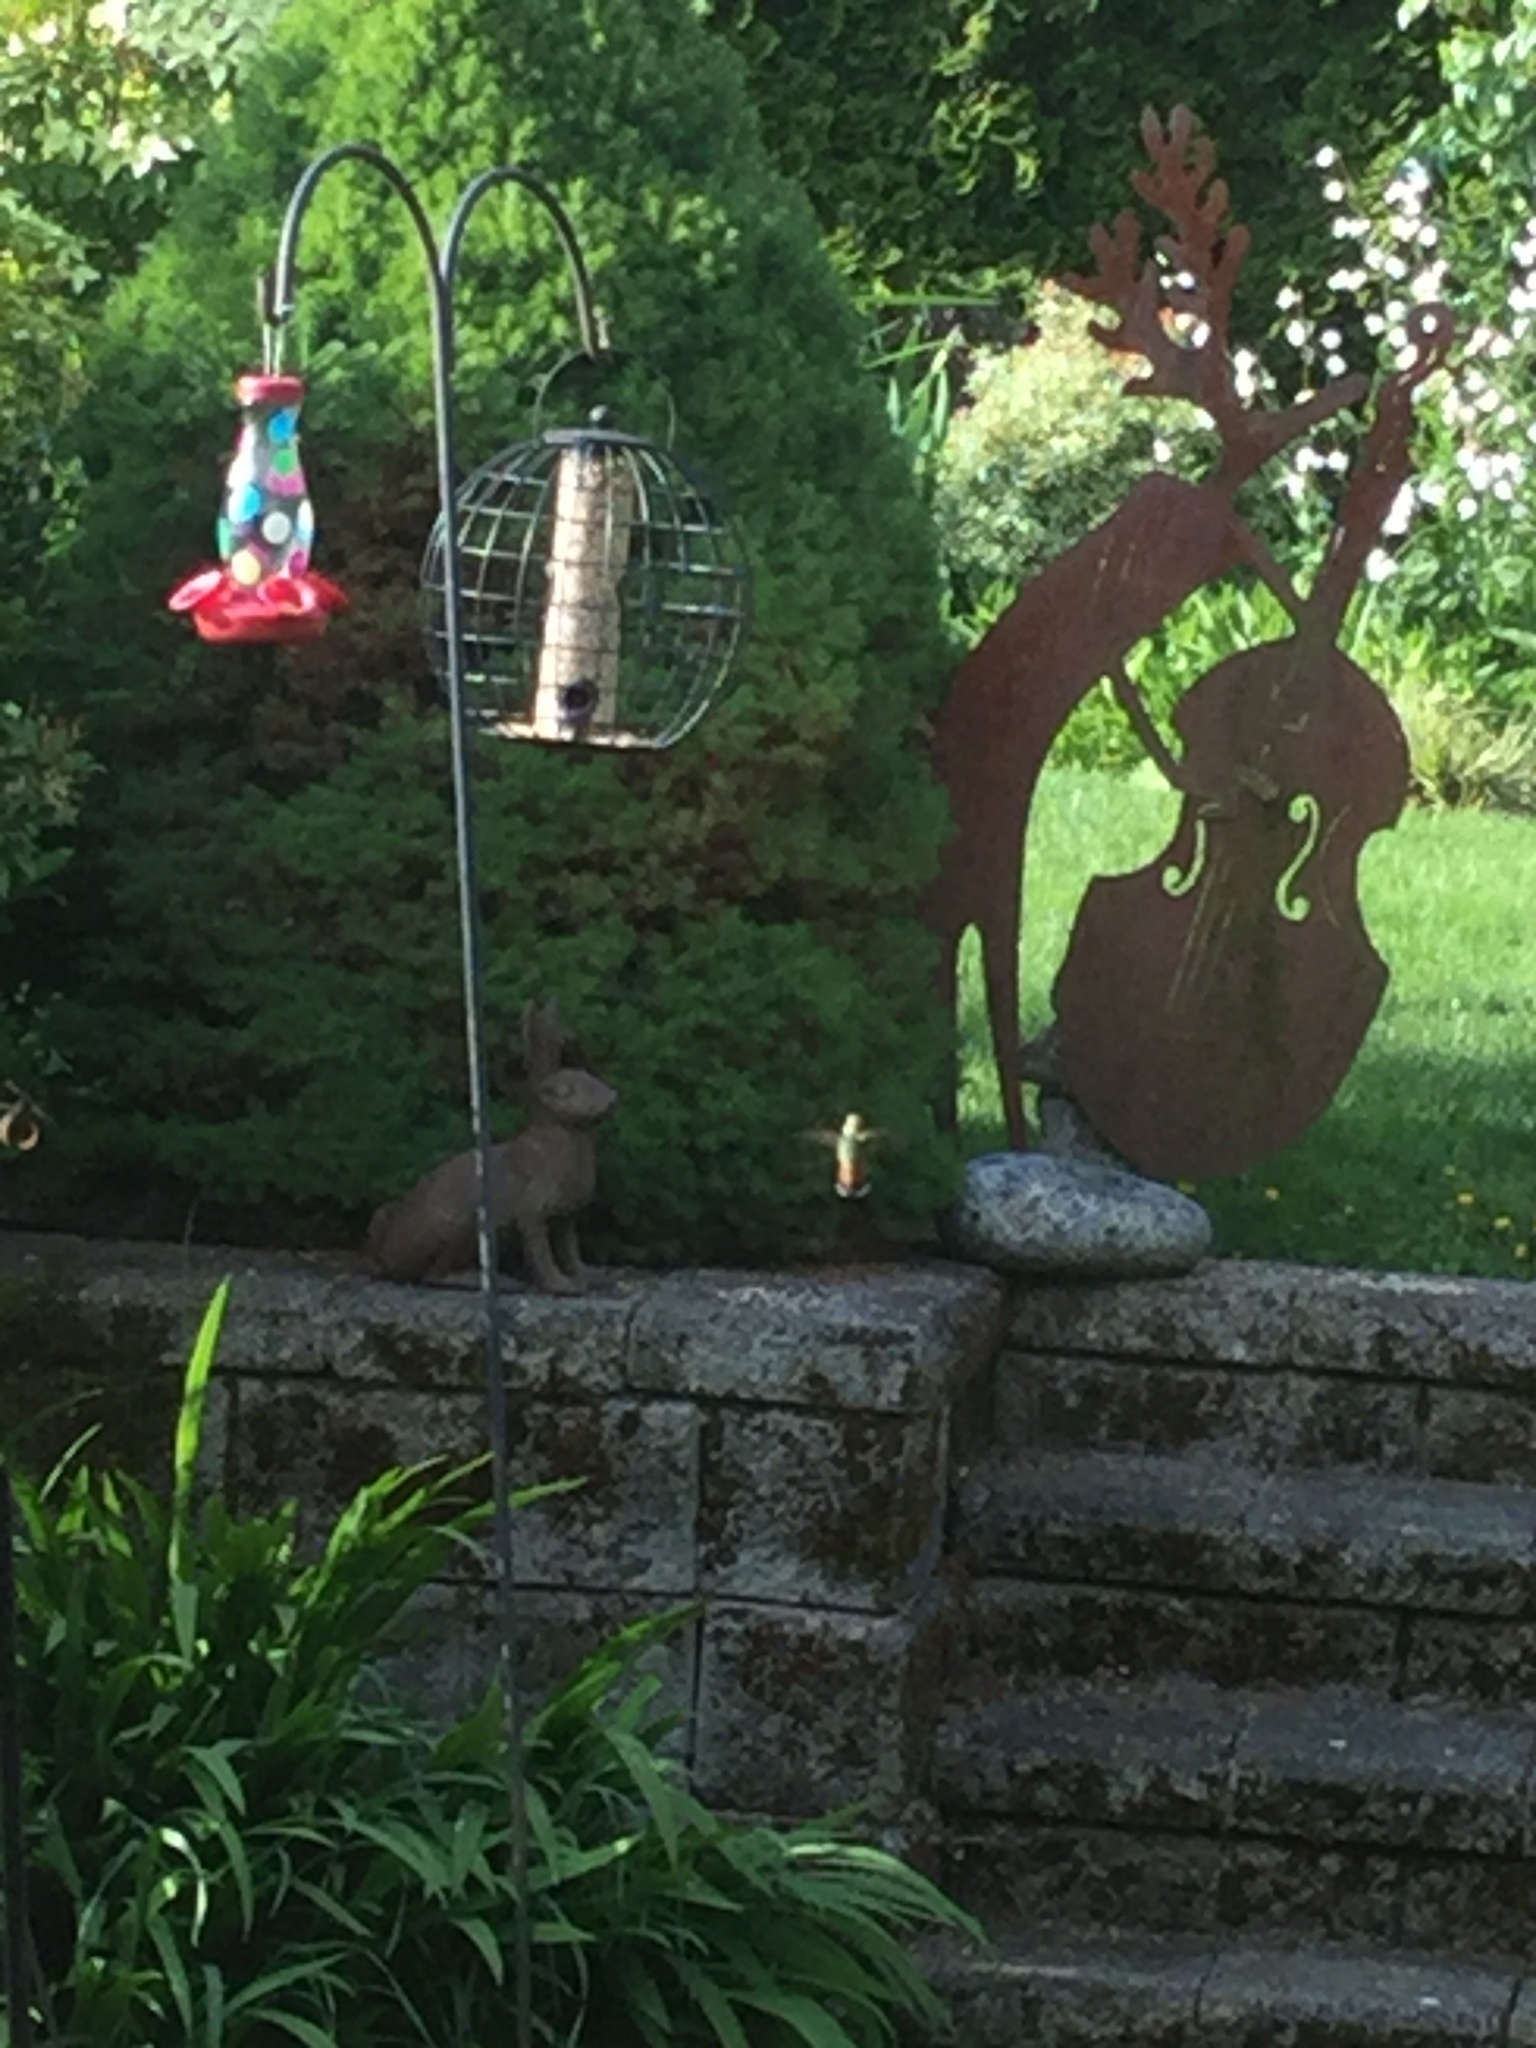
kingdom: Animalia
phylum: Chordata
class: Aves
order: Apodiformes
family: Trochilidae
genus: Selasphorus
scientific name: Selasphorus rufus
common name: Rufous hummingbird
